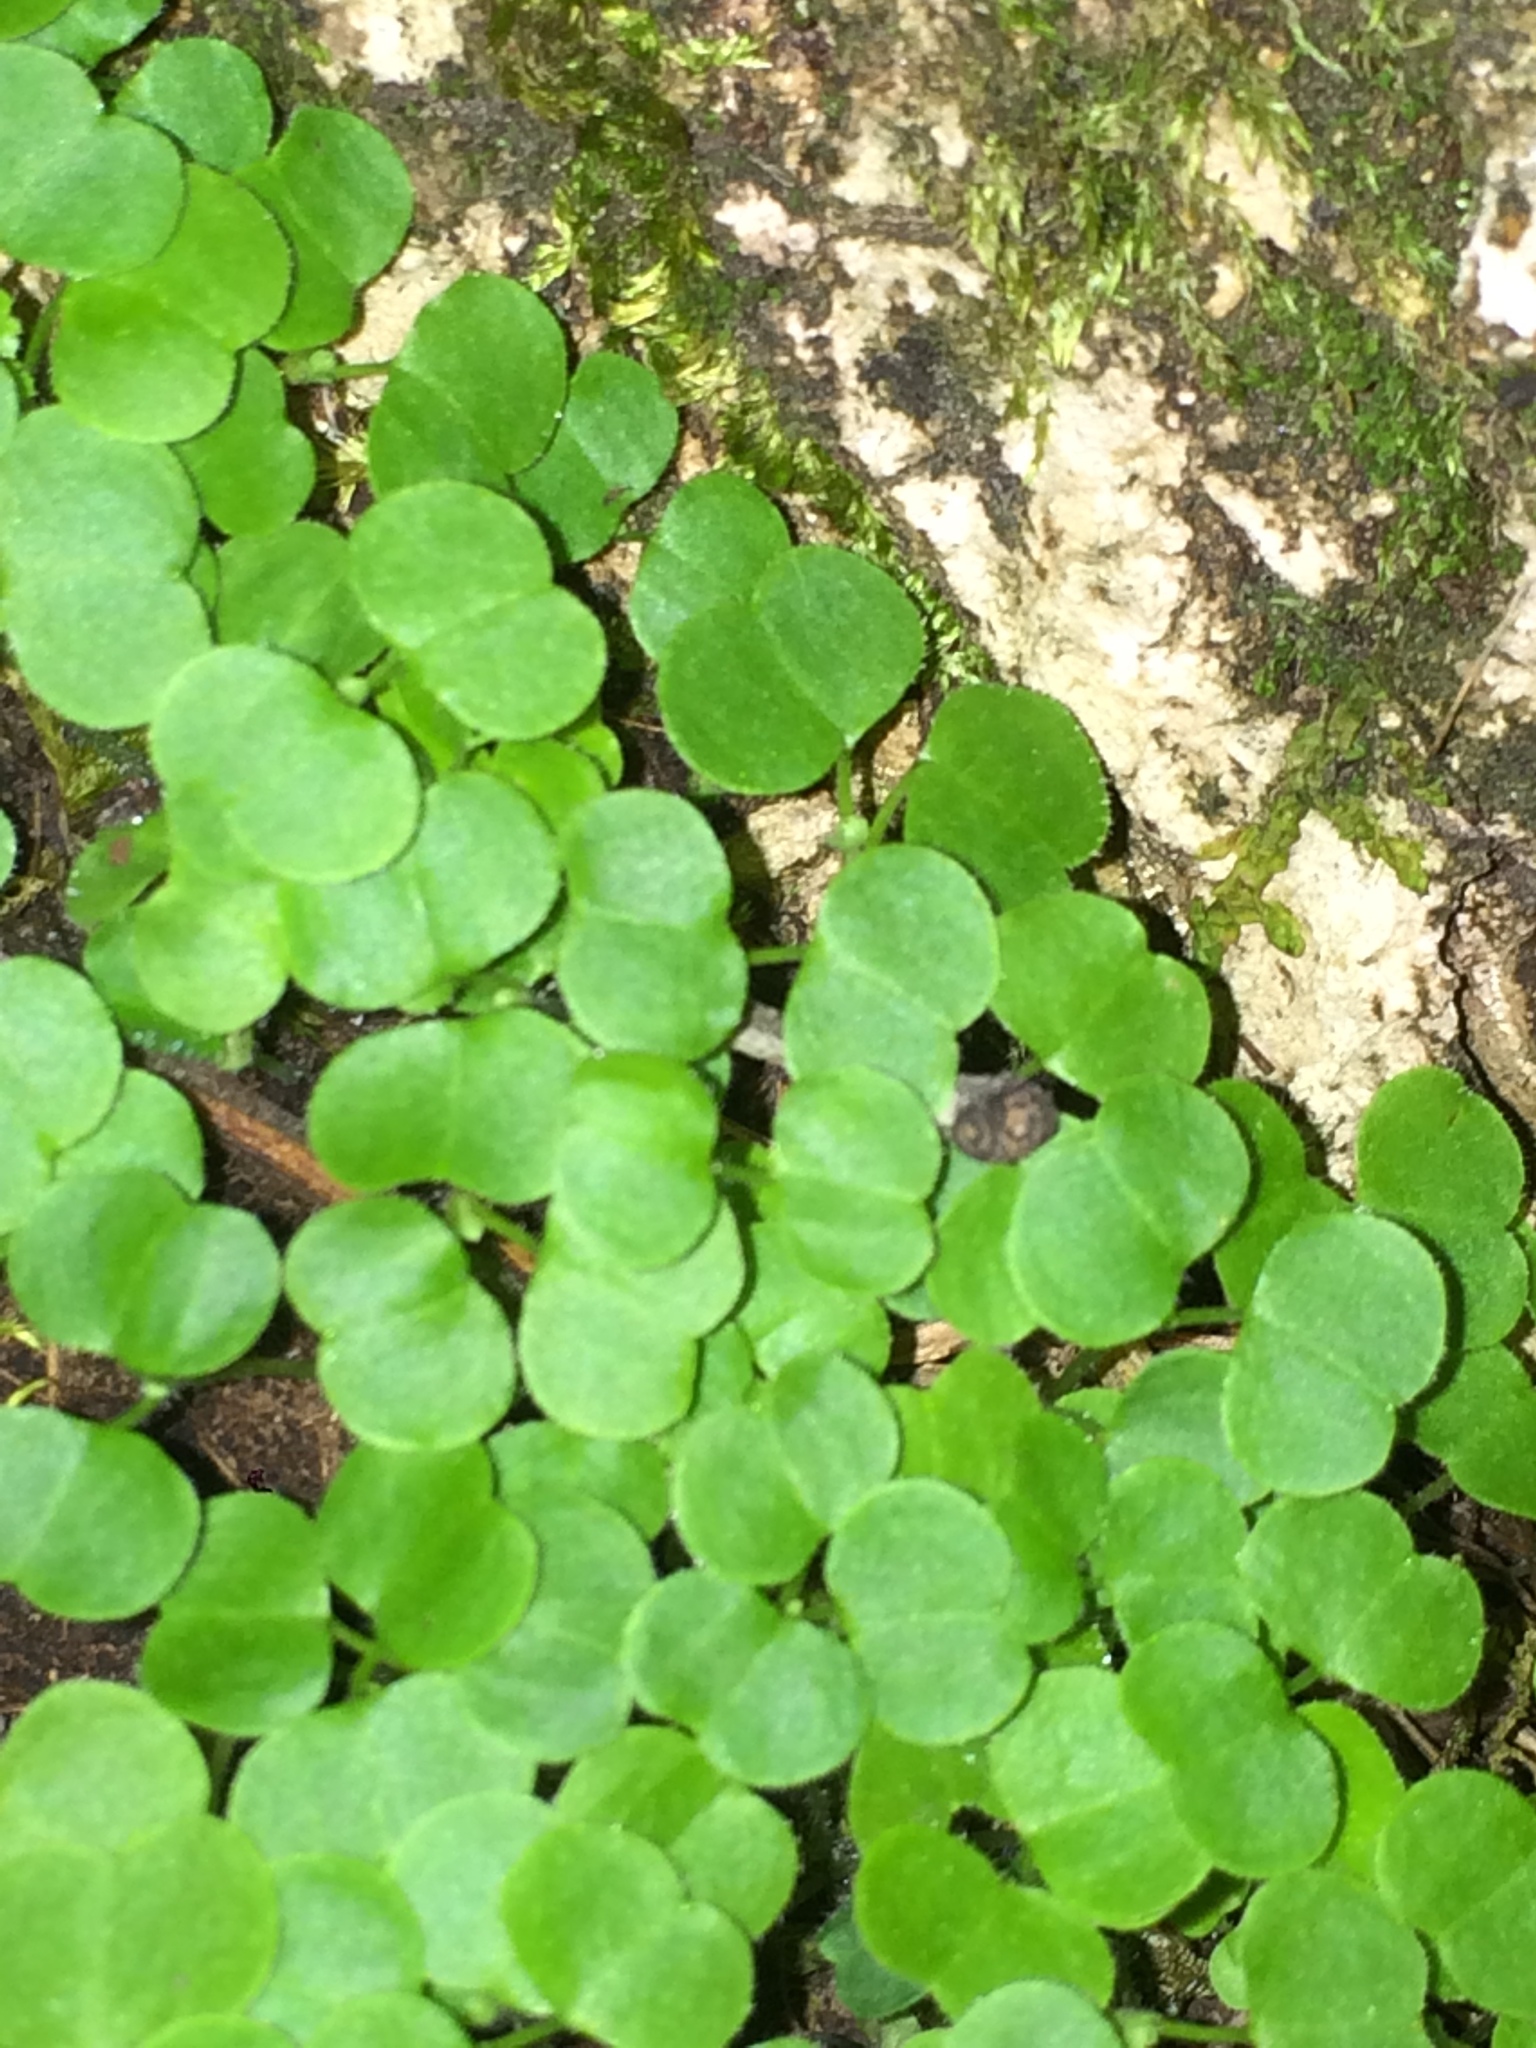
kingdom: Plantae
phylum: Tracheophyta
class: Magnoliopsida
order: Geraniales
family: Geraniaceae
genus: Geranium
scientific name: Geranium lucidum
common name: Shining crane's-bill
